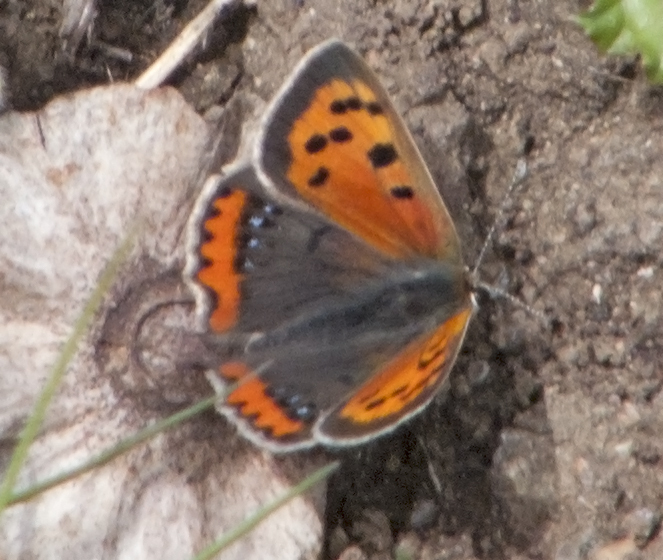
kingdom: Animalia
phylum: Arthropoda
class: Insecta
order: Lepidoptera
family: Lycaenidae
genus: Lycaena
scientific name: Lycaena phlaeas
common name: Small copper
